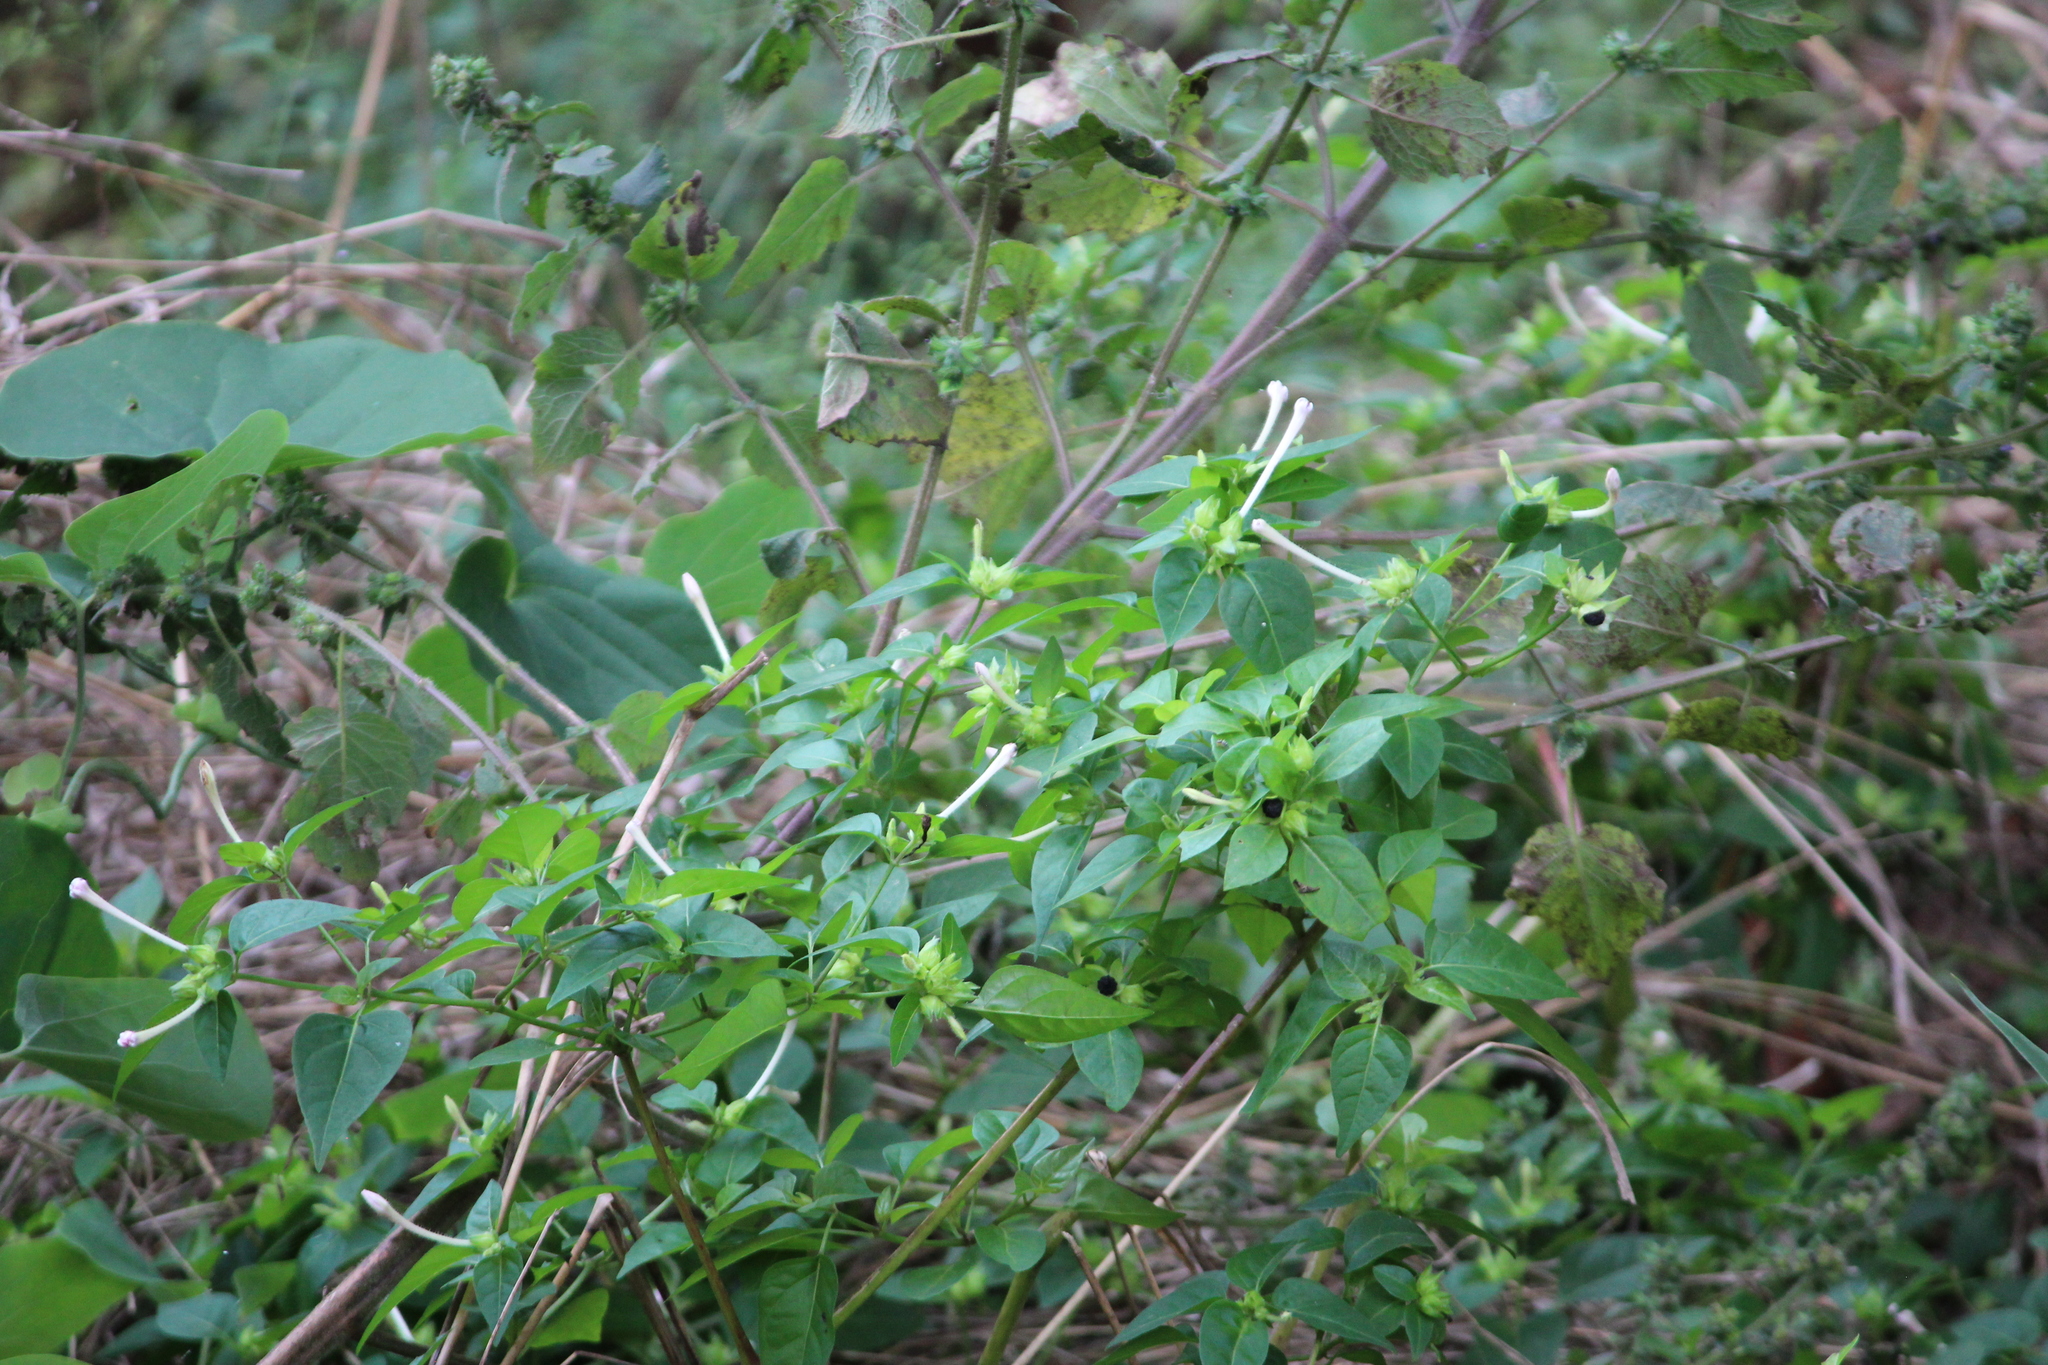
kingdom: Plantae
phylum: Tracheophyta
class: Magnoliopsida
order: Caryophyllales
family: Nyctaginaceae
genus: Mirabilis
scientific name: Mirabilis jalapa
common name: Marvel-of-peru
